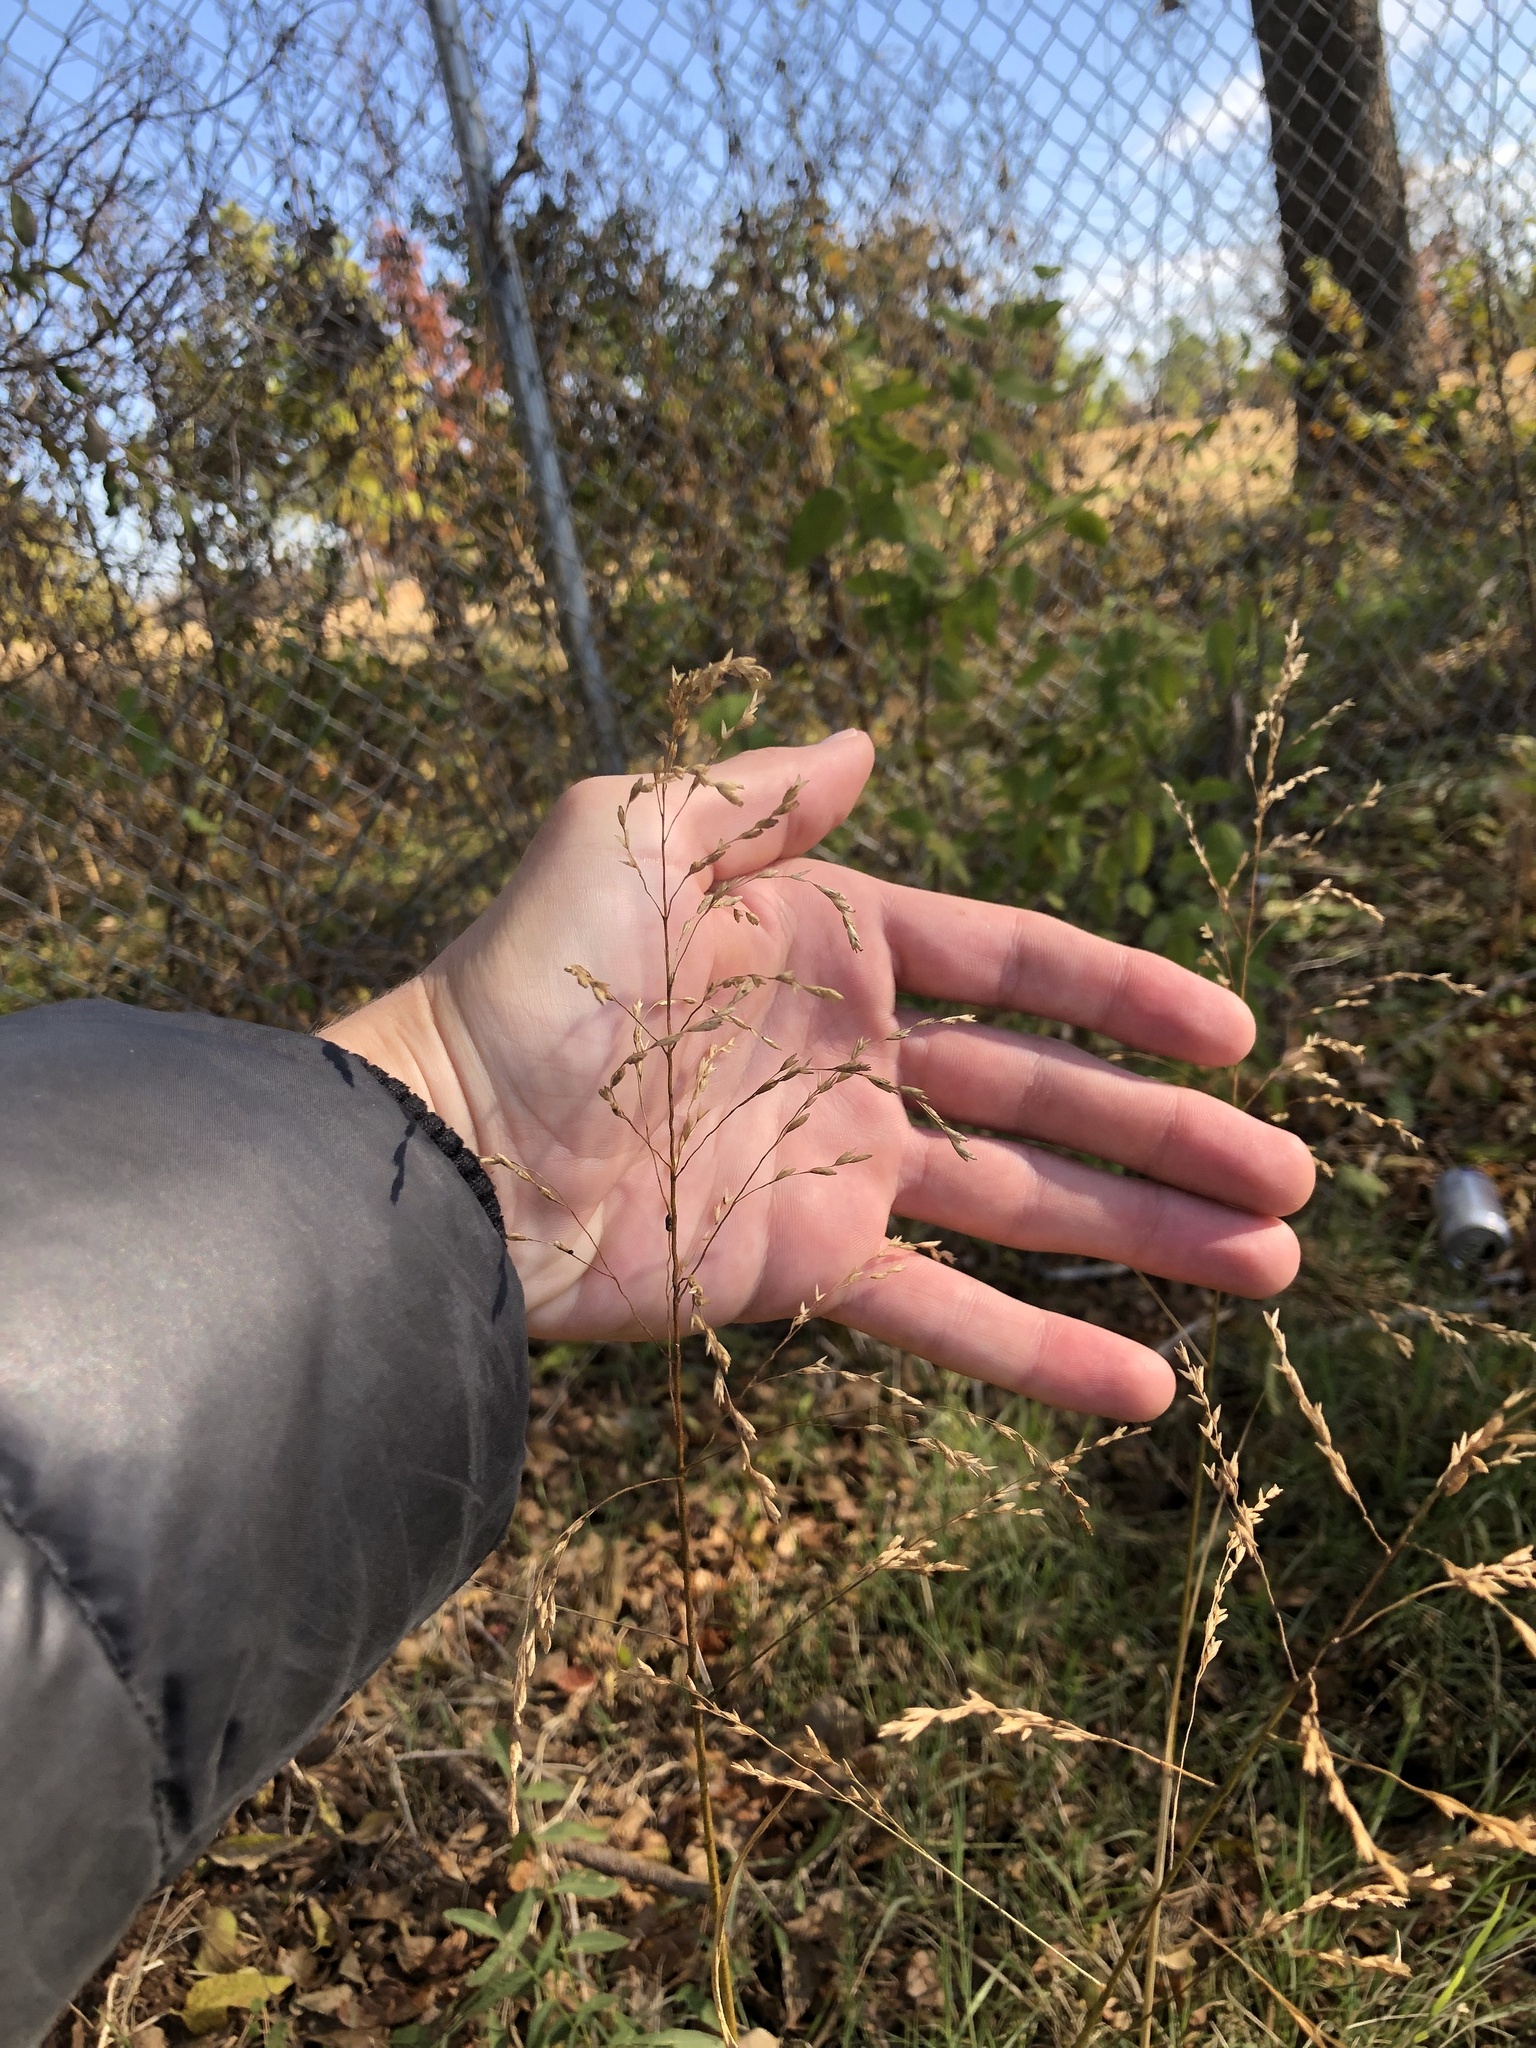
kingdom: Plantae
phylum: Tracheophyta
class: Liliopsida
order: Poales
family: Poaceae
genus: Tridens
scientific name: Tridens flavus
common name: Purpletop
